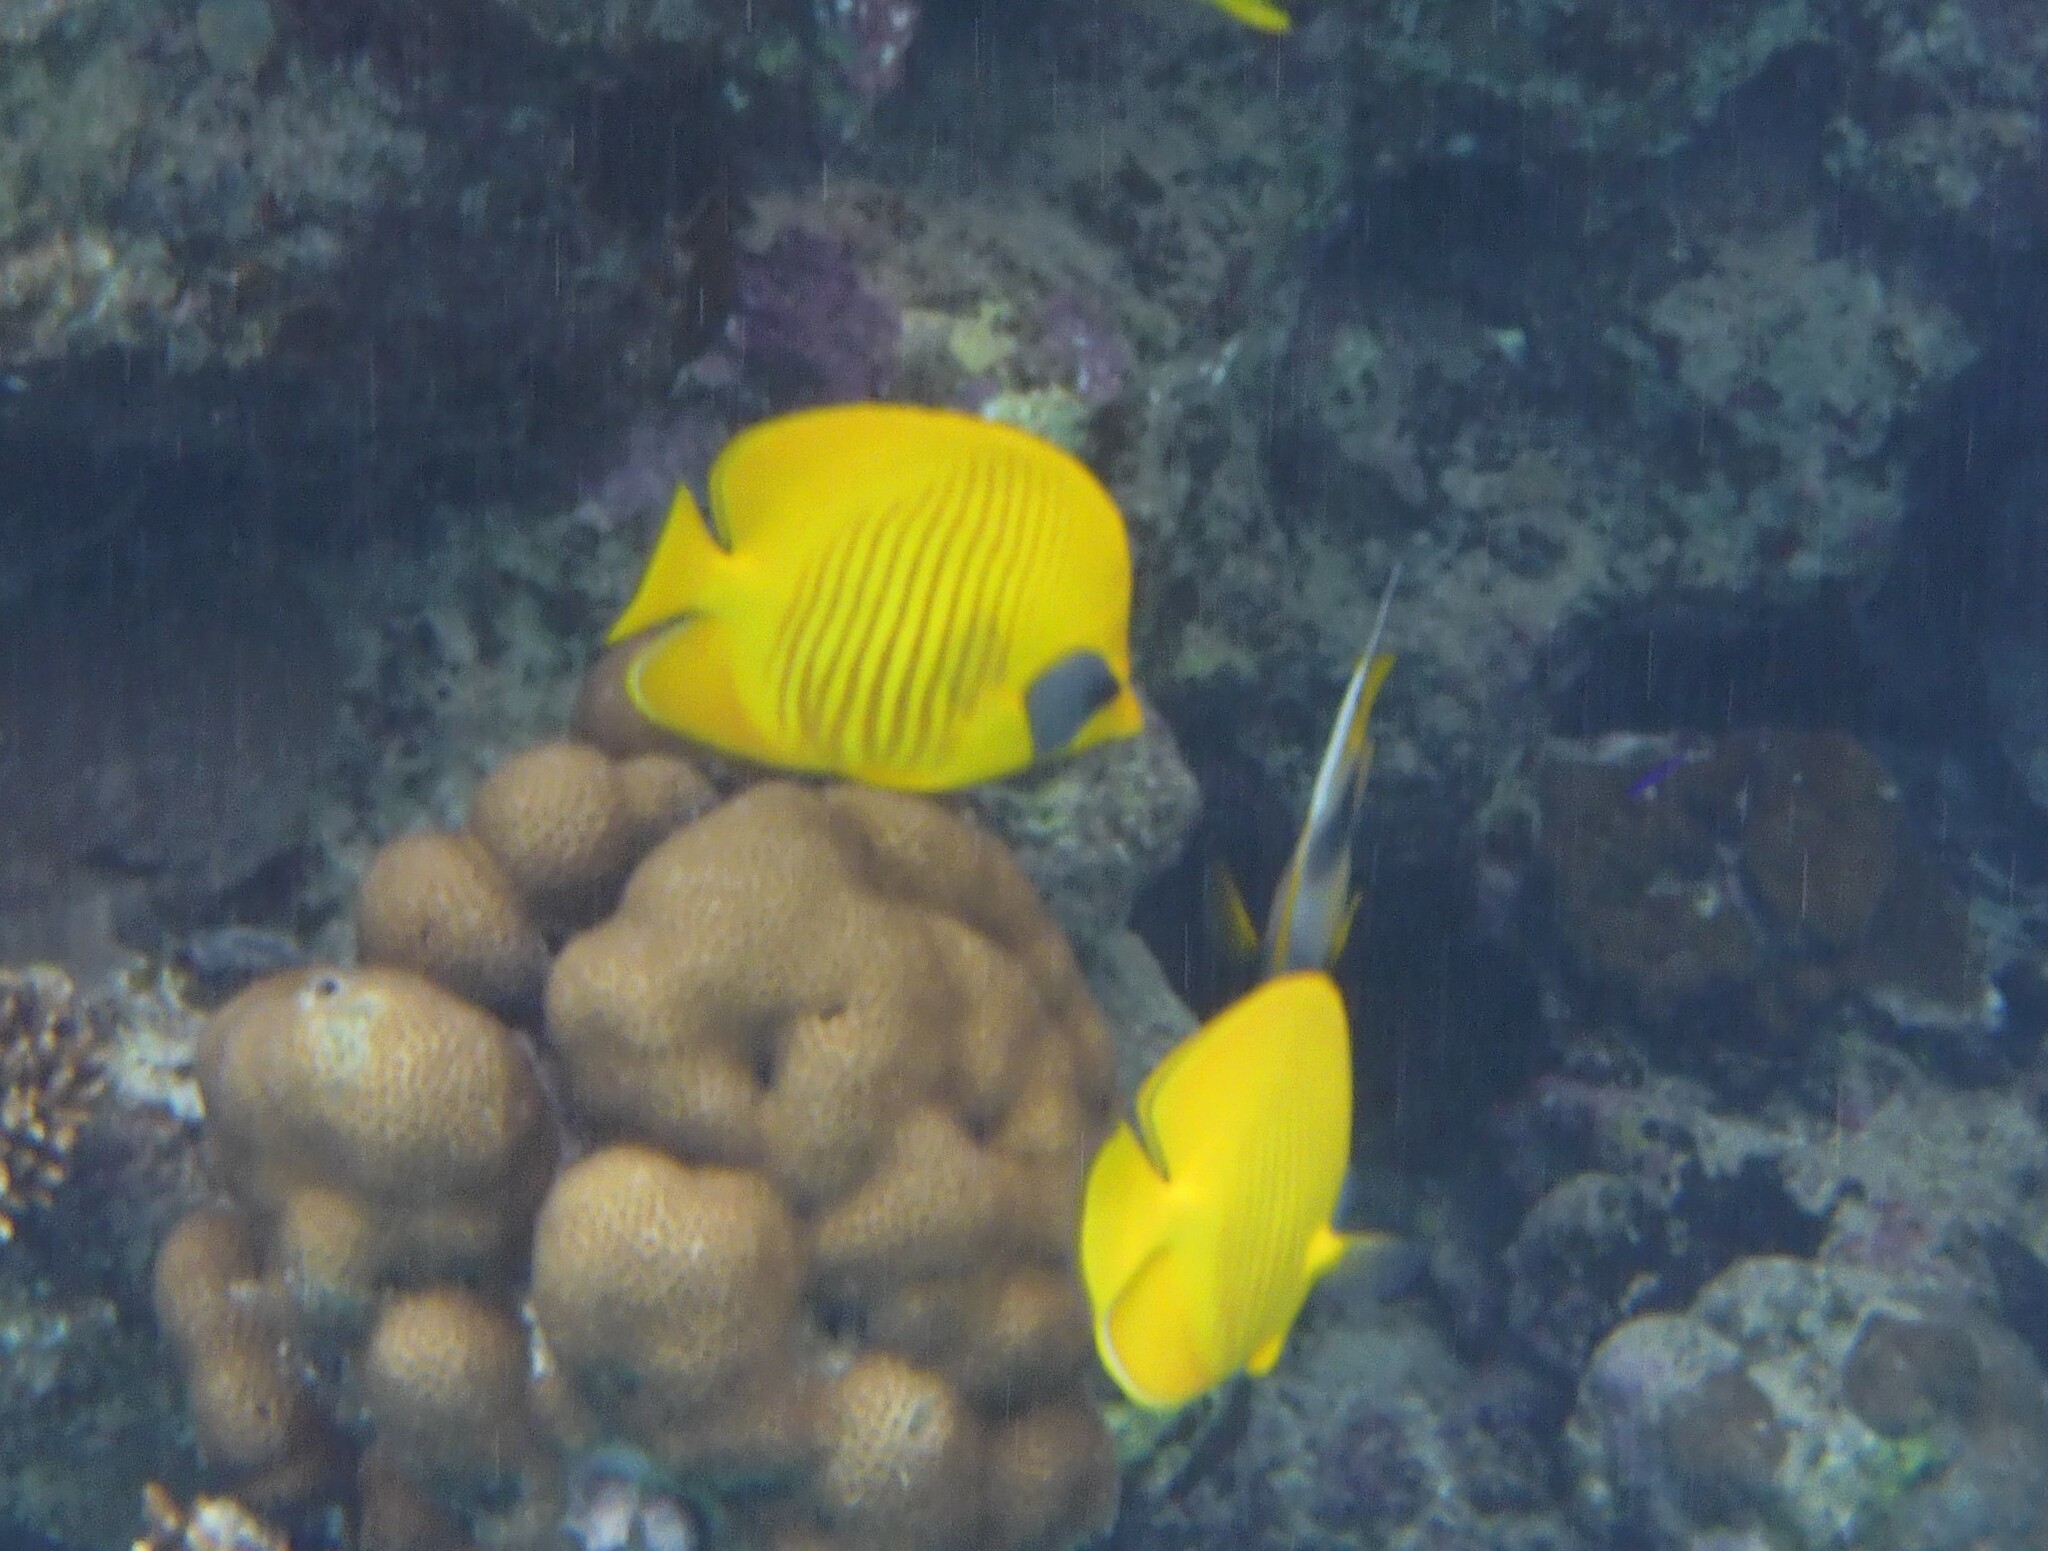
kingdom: Animalia
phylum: Chordata
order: Perciformes
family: Chaetodontidae
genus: Chaetodon
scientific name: Chaetodon semilarvatus
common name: Golden butterflyfish
